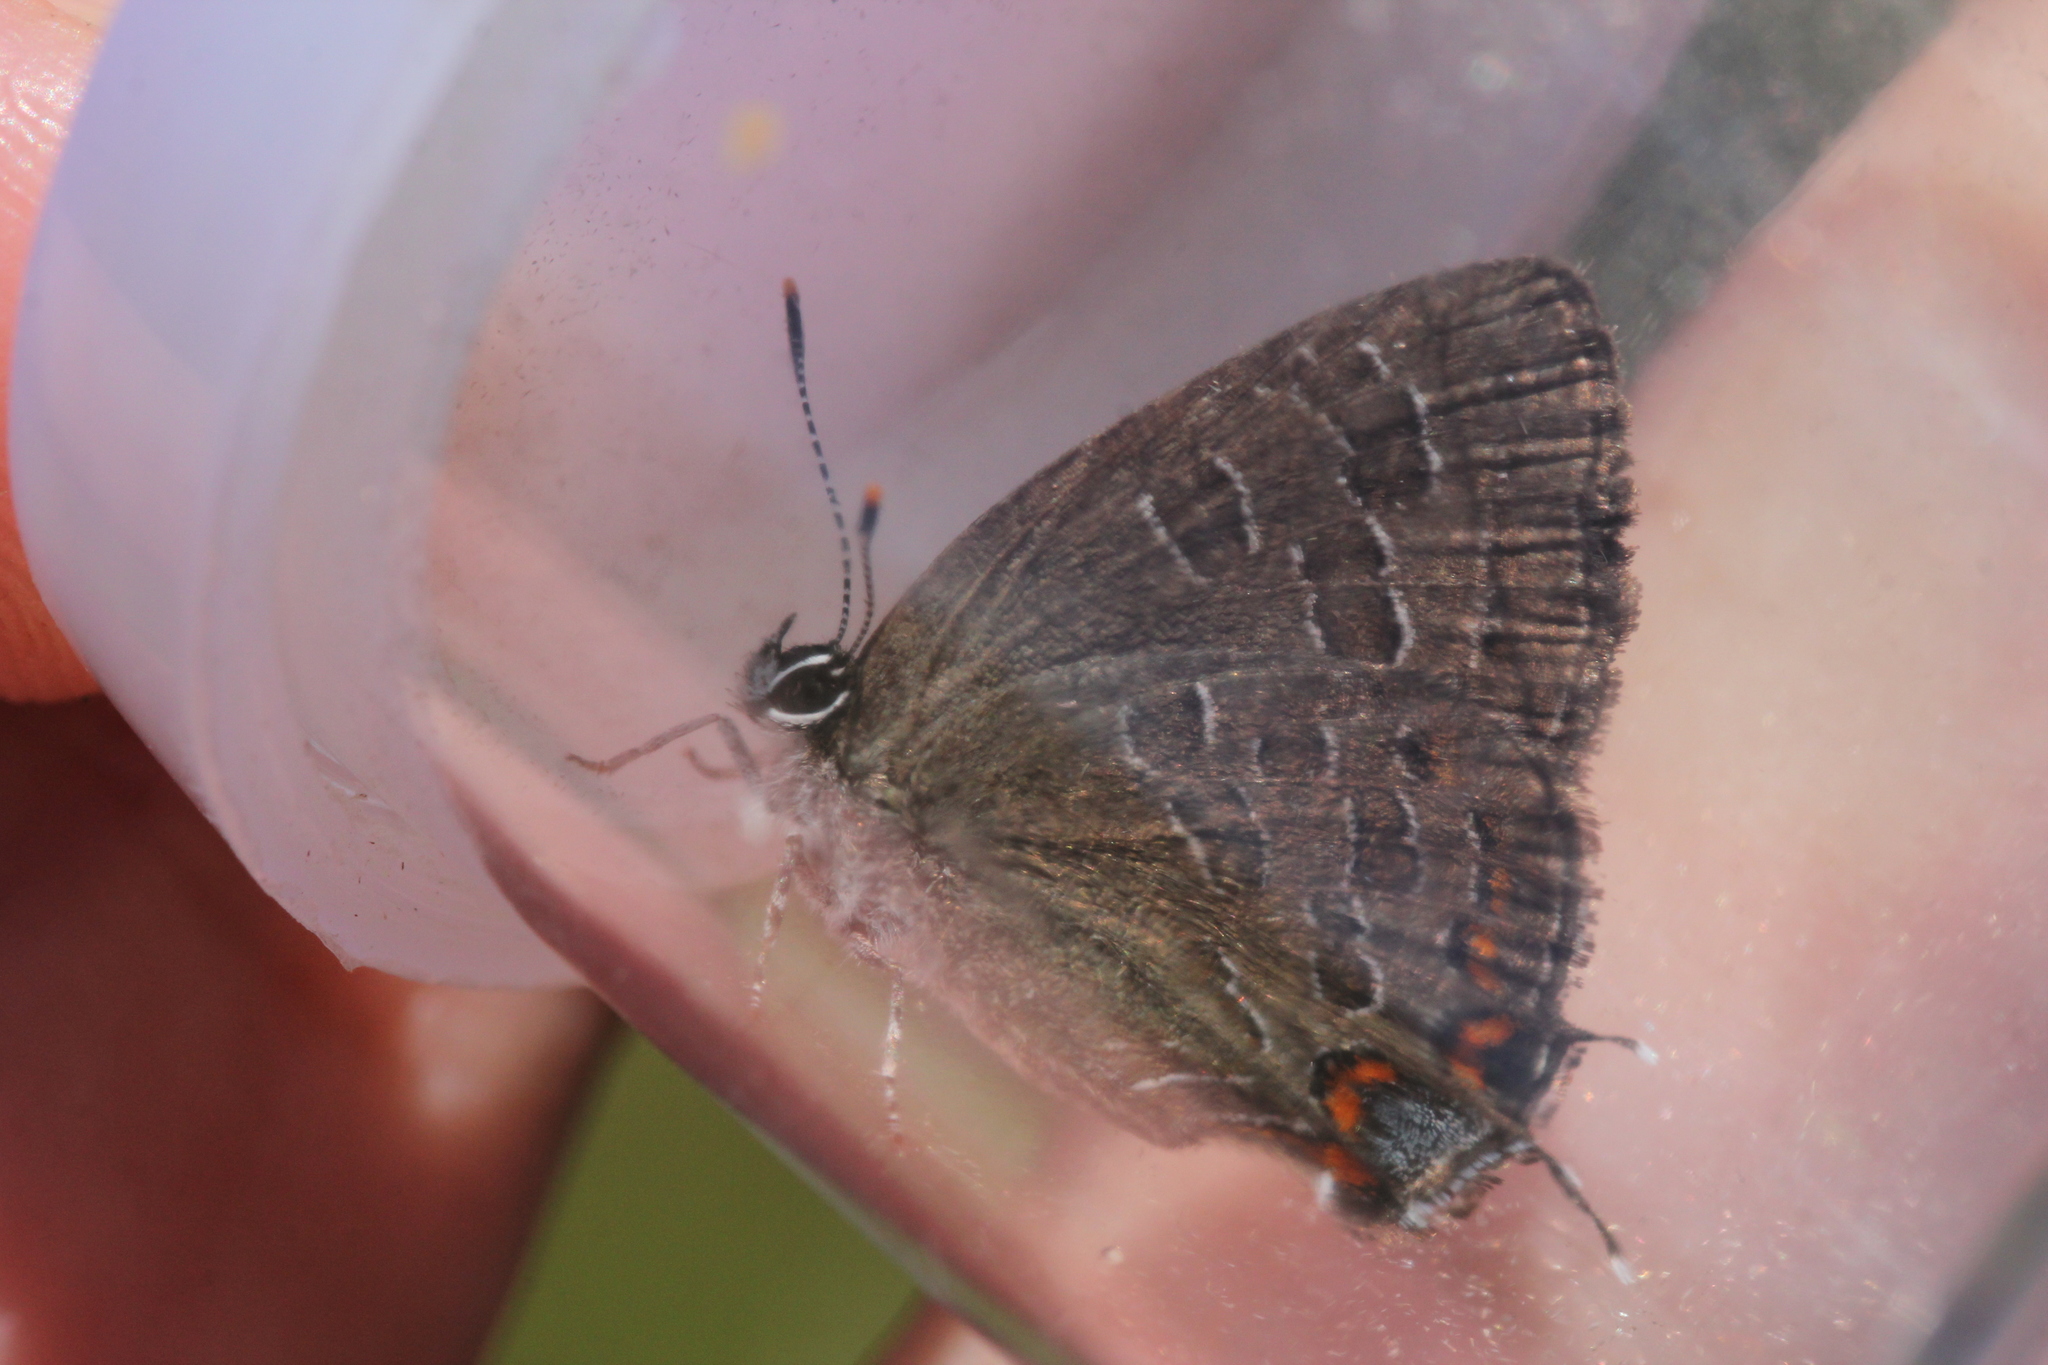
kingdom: Animalia
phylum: Arthropoda
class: Insecta
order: Lepidoptera
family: Lycaenidae
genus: Satyrium
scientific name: Satyrium liparops
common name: Striped hairstreak
